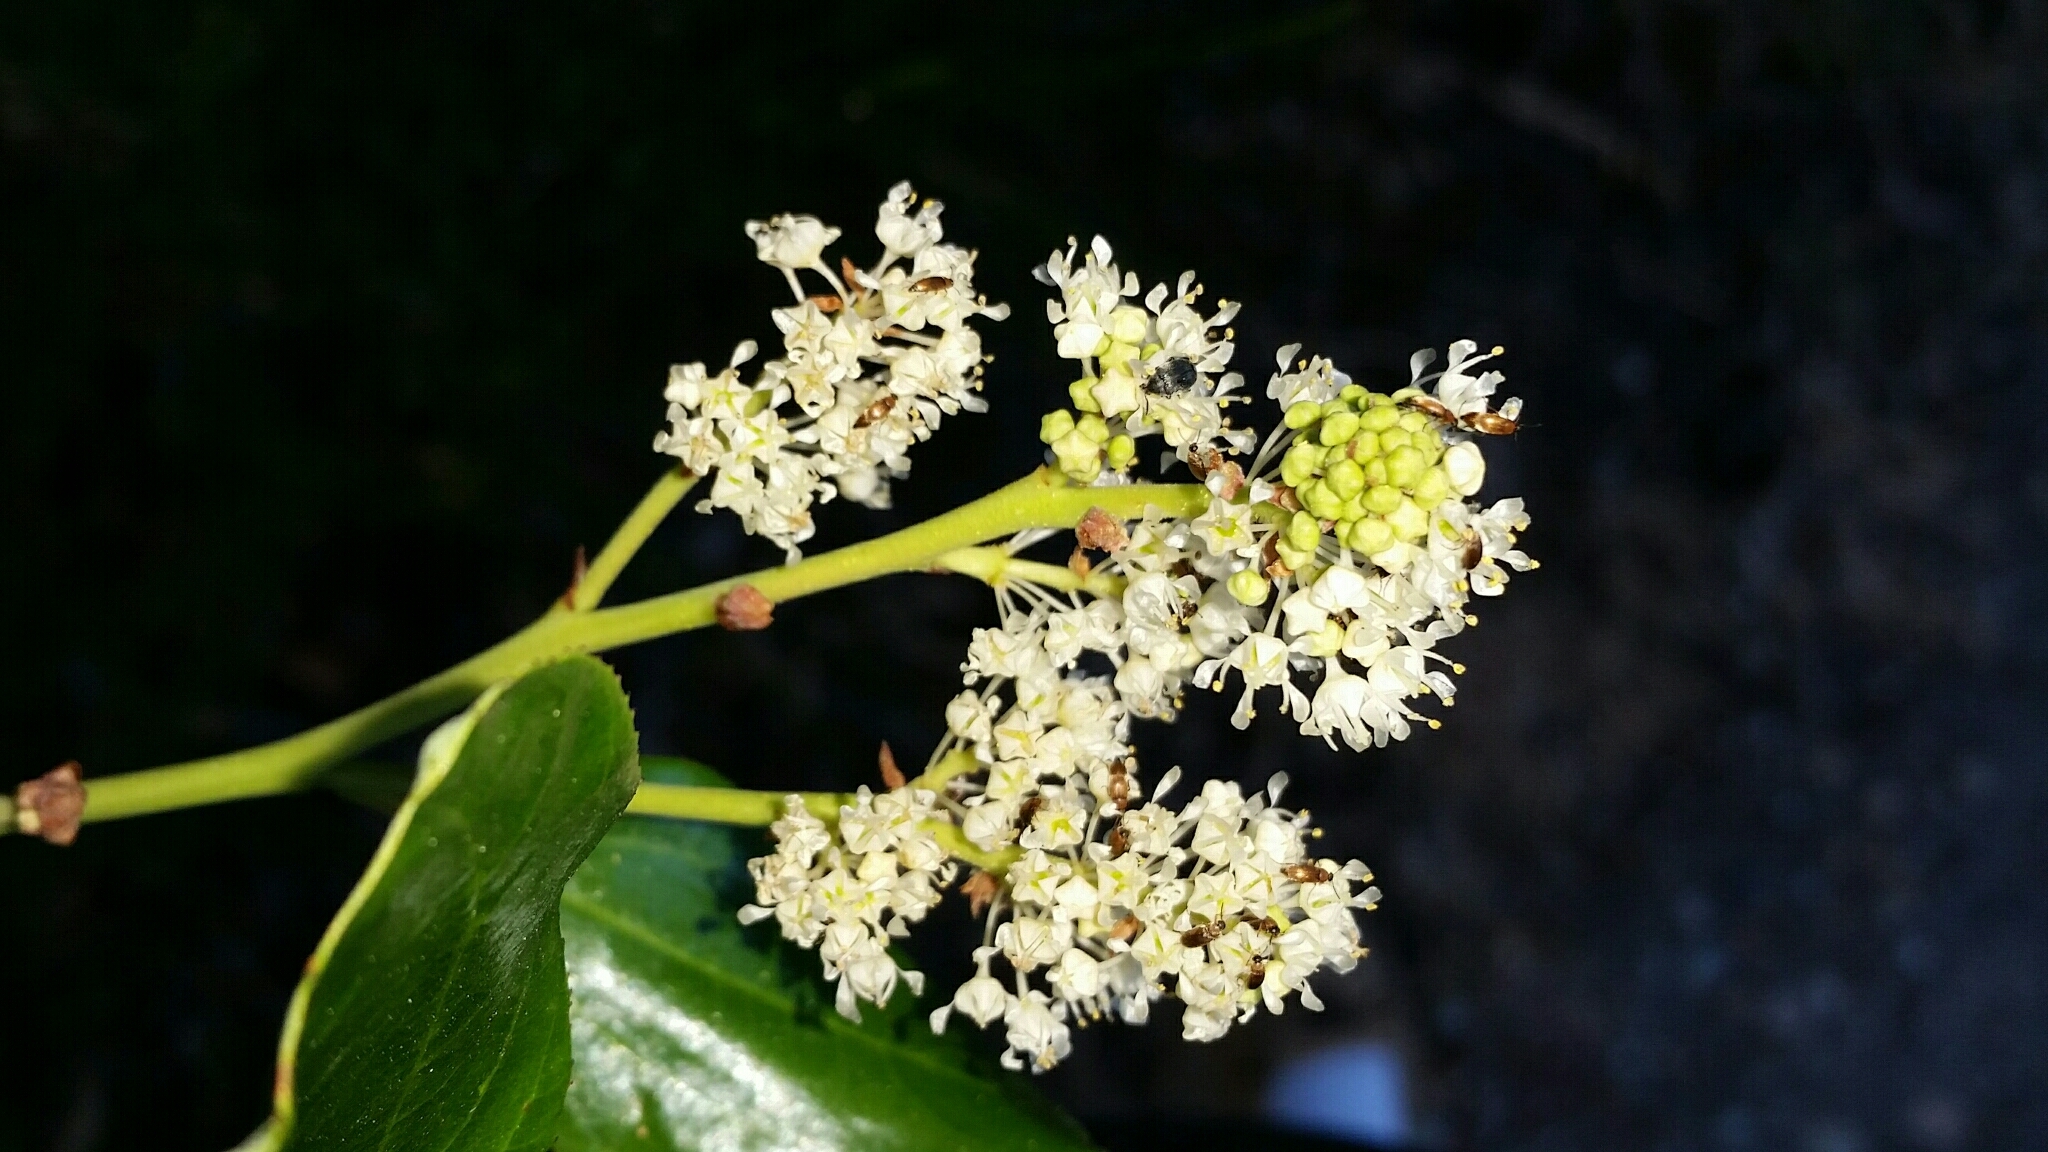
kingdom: Plantae
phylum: Tracheophyta
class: Magnoliopsida
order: Rosales
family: Rhamnaceae
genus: Ceanothus
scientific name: Ceanothus velutinus
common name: Snowbrush
